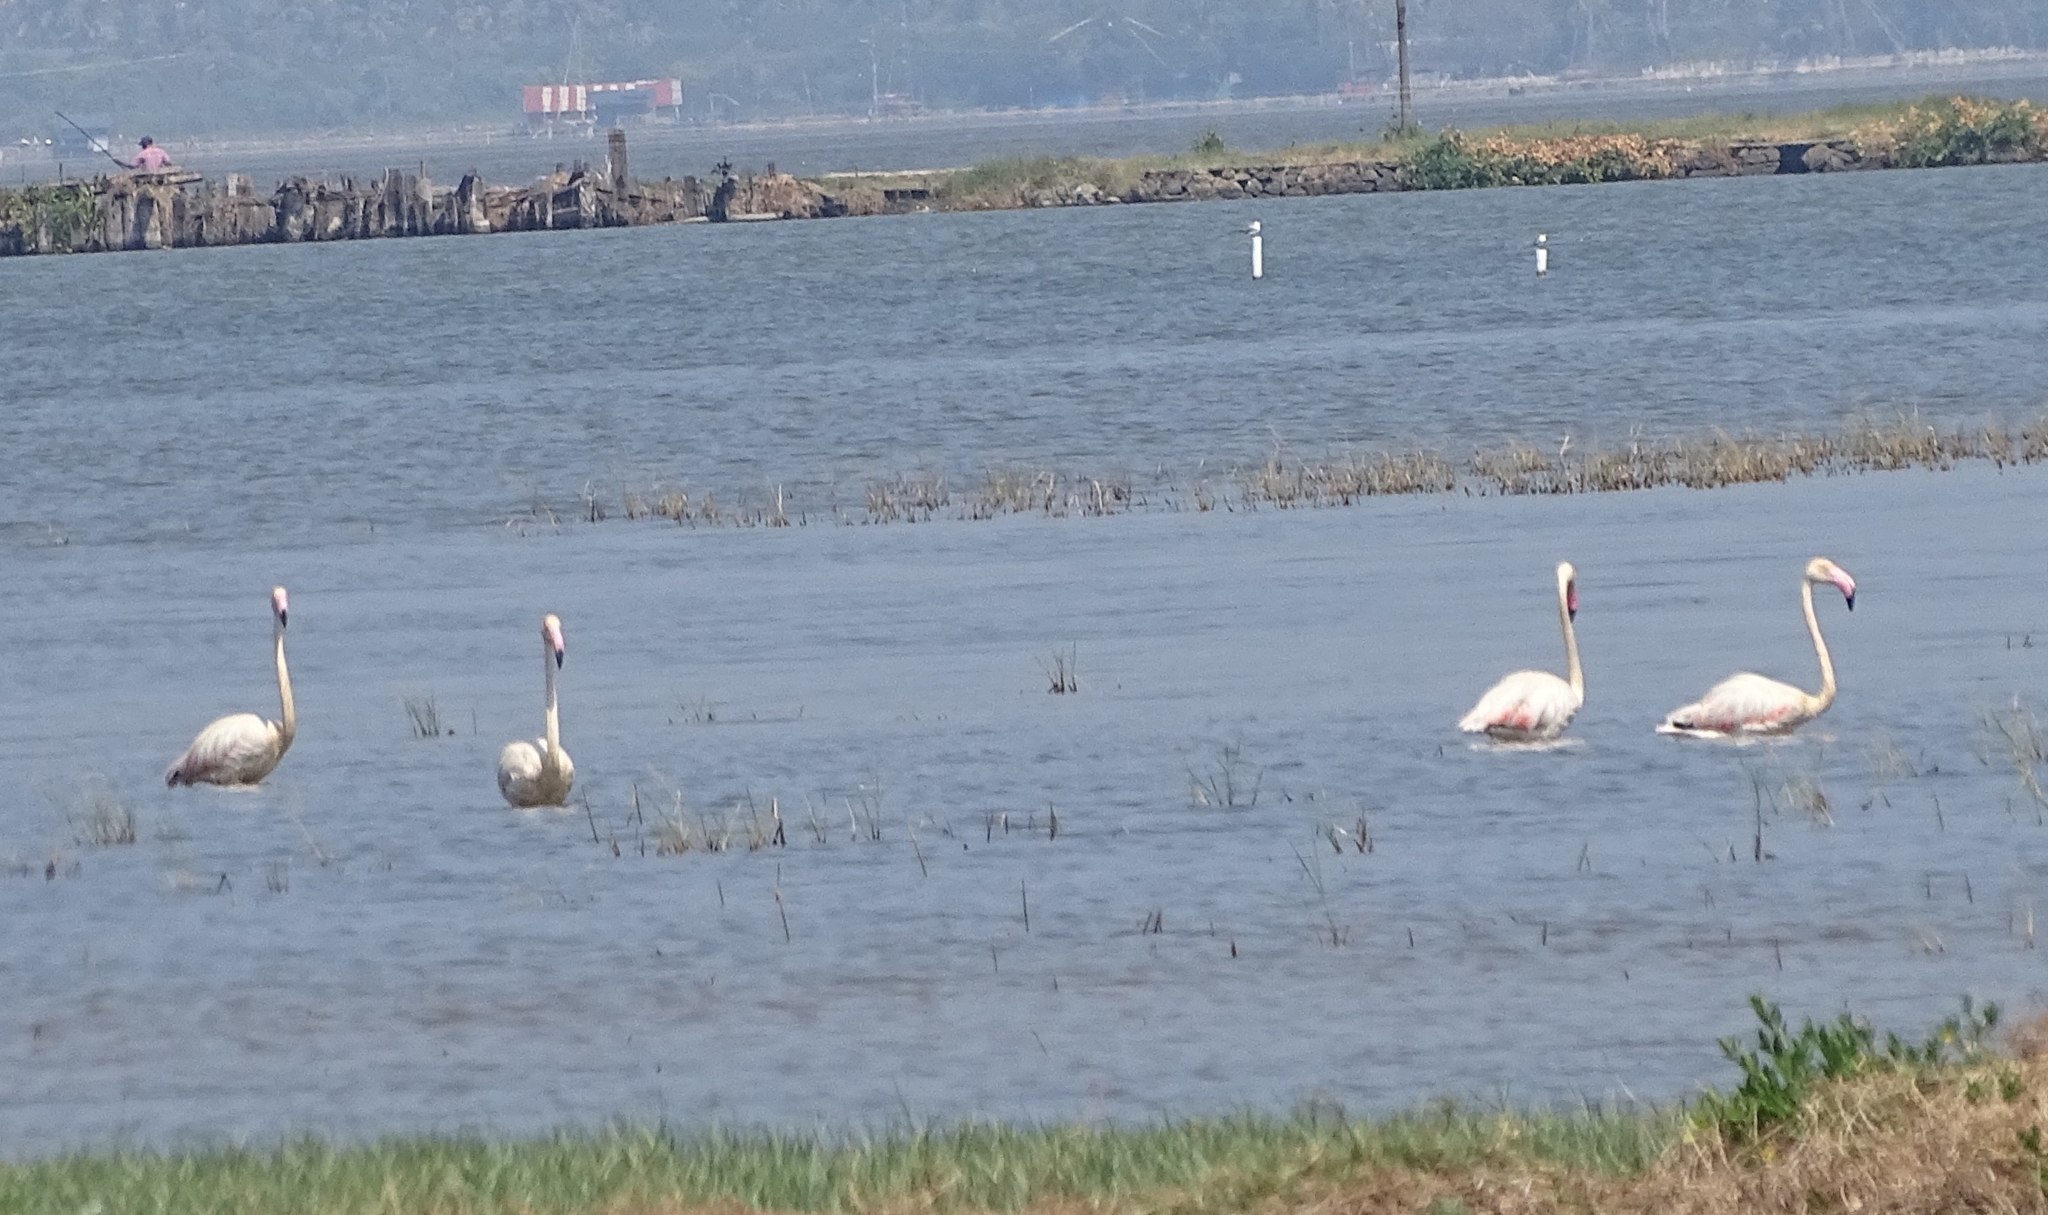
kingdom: Animalia
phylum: Chordata
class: Aves
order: Phoenicopteriformes
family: Phoenicopteridae
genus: Phoenicopterus
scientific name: Phoenicopterus roseus
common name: Greater flamingo
